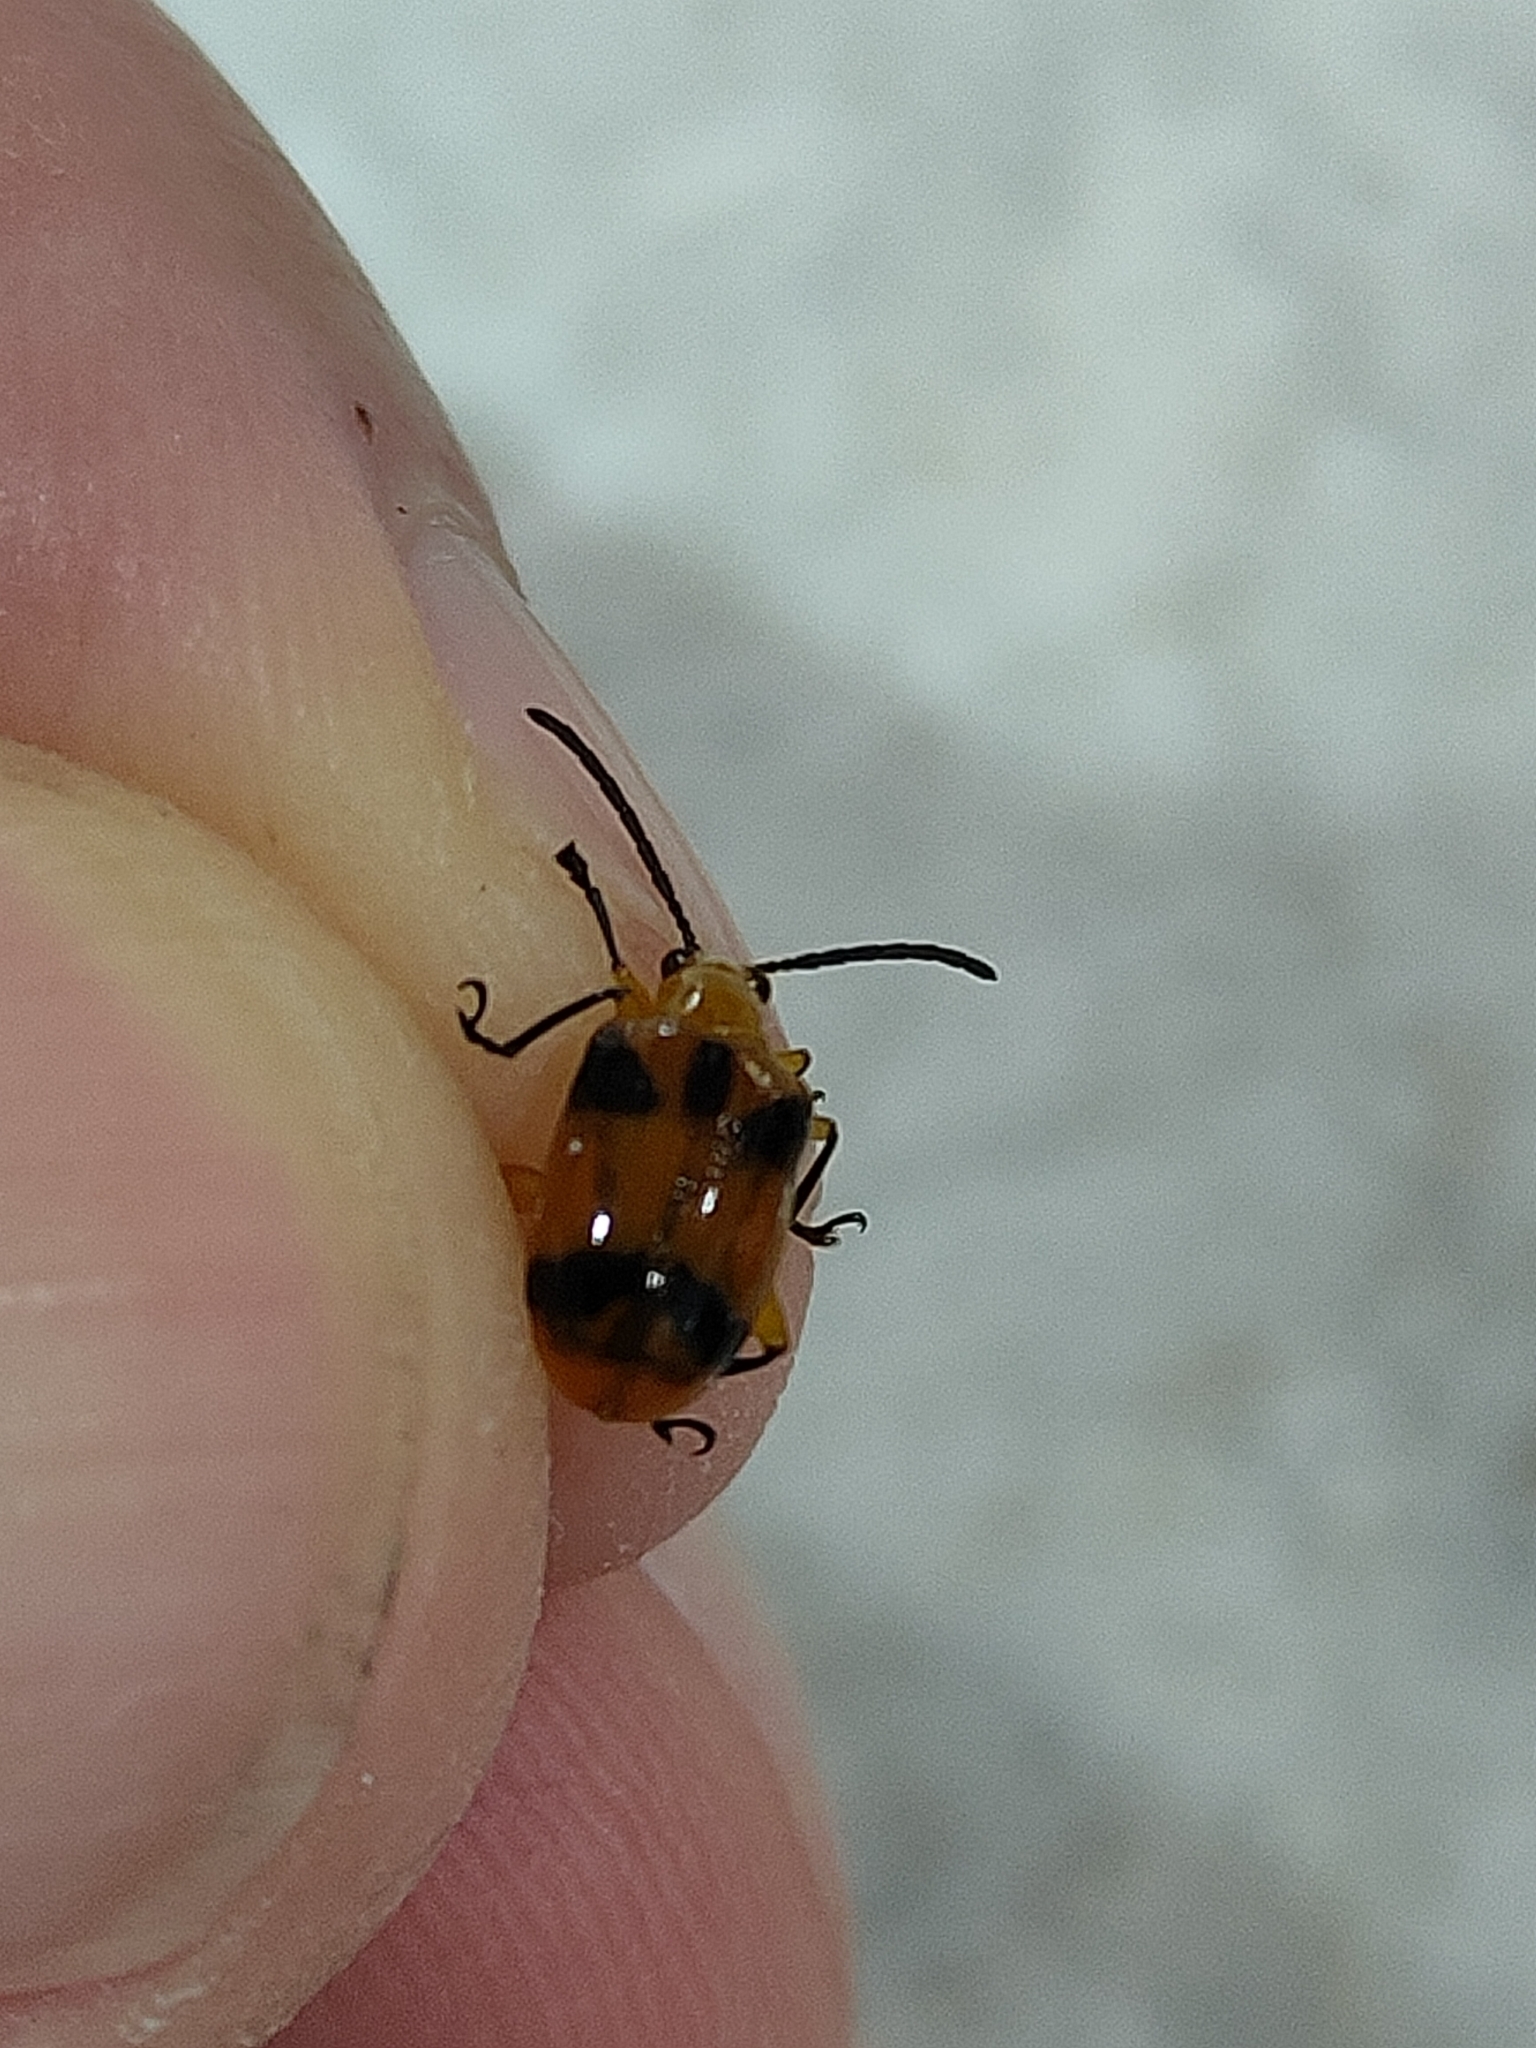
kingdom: Animalia
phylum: Arthropoda
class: Insecta
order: Coleoptera
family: Chrysomelidae
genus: Stethopachys
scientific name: Stethopachys formosa
